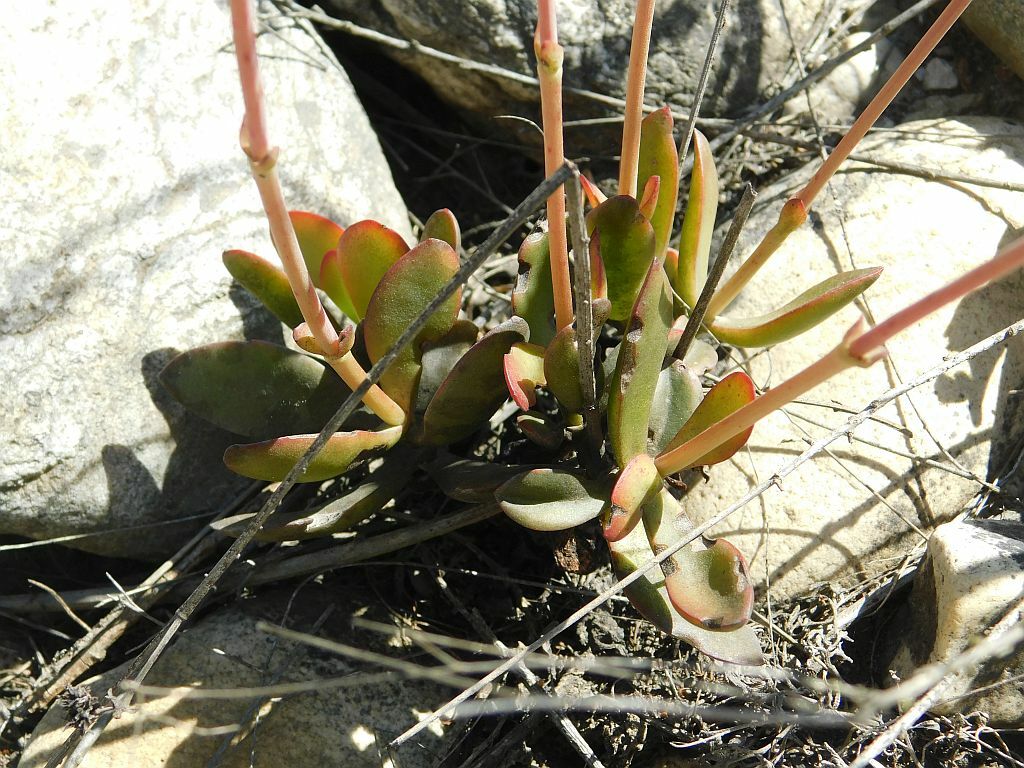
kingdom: Plantae
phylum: Tracheophyta
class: Magnoliopsida
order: Saxifragales
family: Crassulaceae
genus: Crassula
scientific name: Crassula atropurpurea
